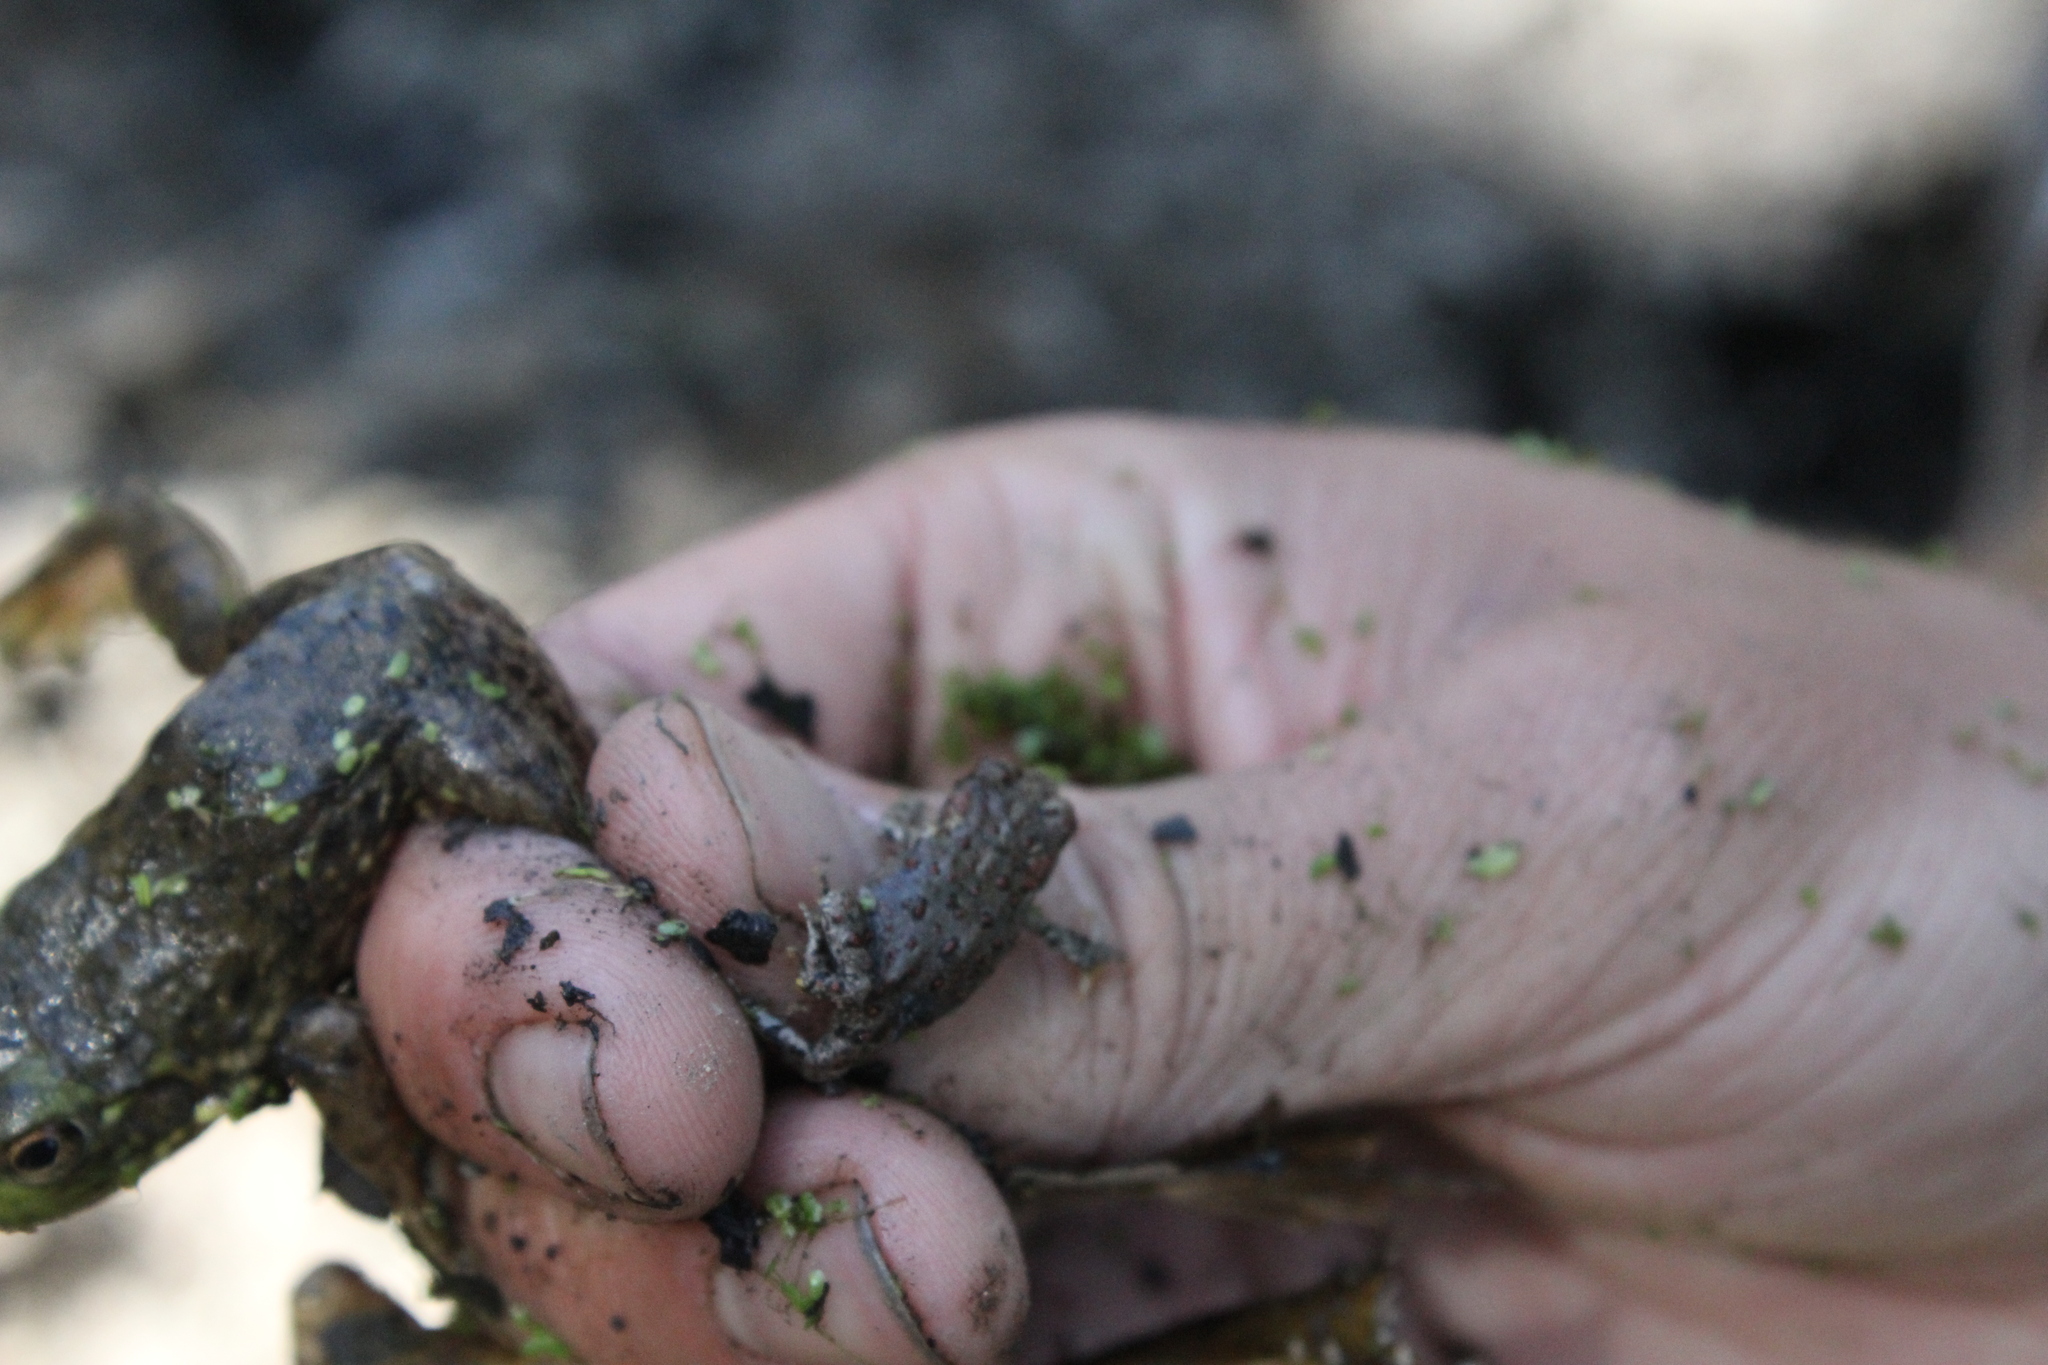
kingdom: Animalia
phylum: Chordata
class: Amphibia
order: Anura
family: Bufonidae
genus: Anaxyrus
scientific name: Anaxyrus boreas
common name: Western toad
